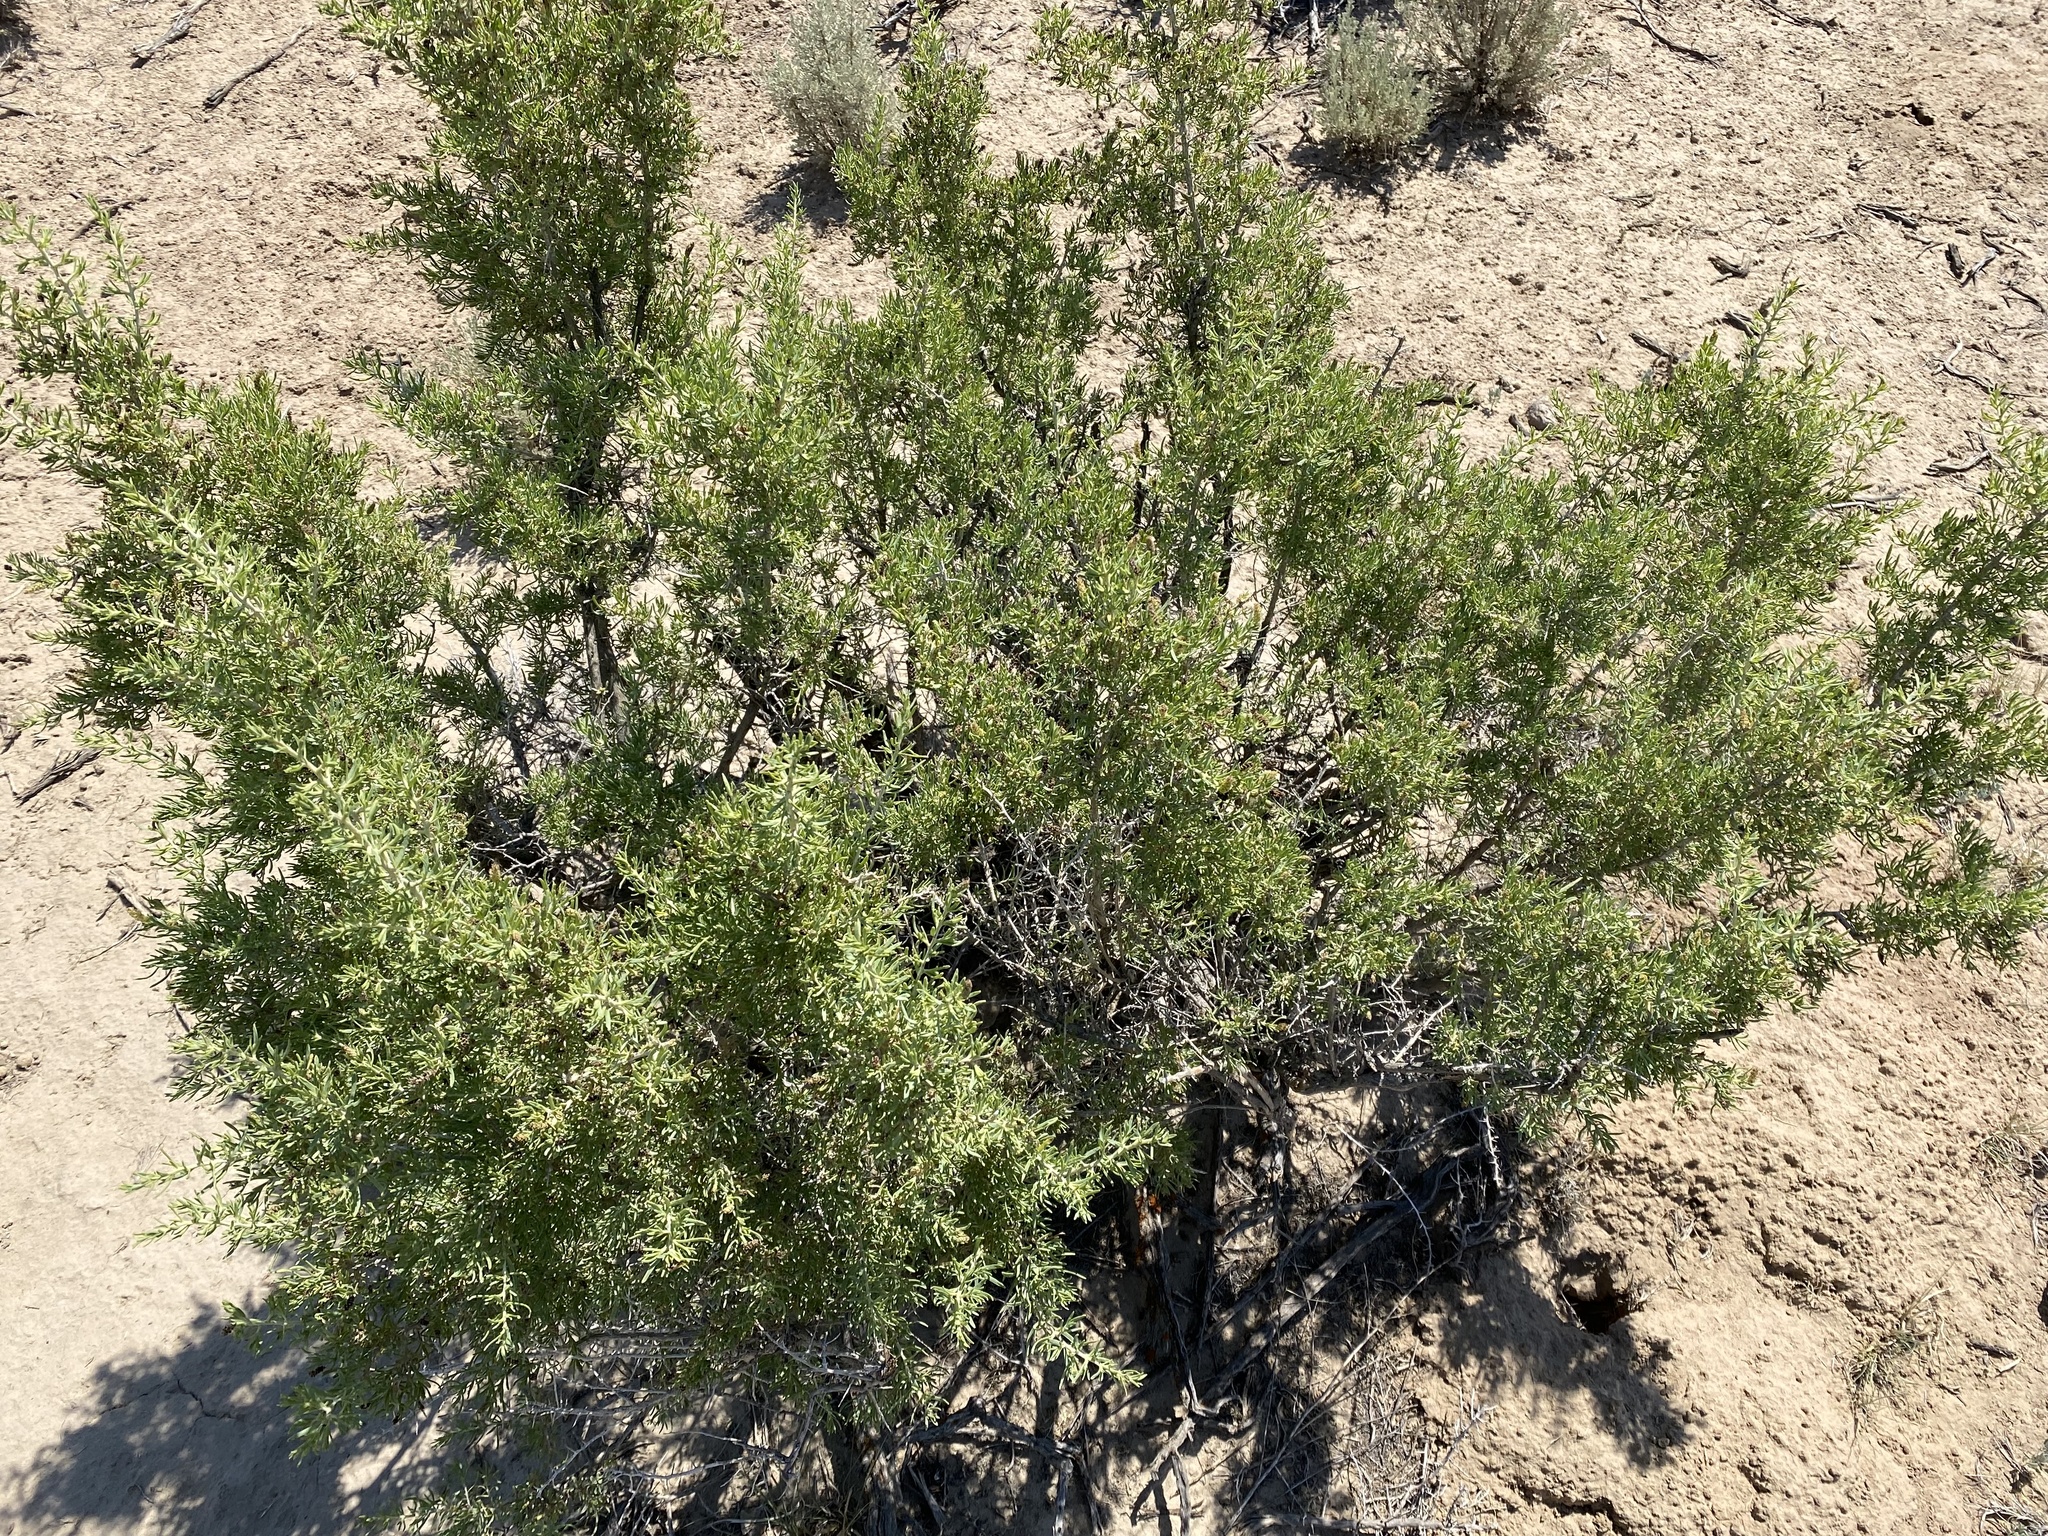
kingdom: Plantae
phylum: Tracheophyta
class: Magnoliopsida
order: Caryophyllales
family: Sarcobataceae
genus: Sarcobatus
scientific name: Sarcobatus vermiculatus
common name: Greasewood
